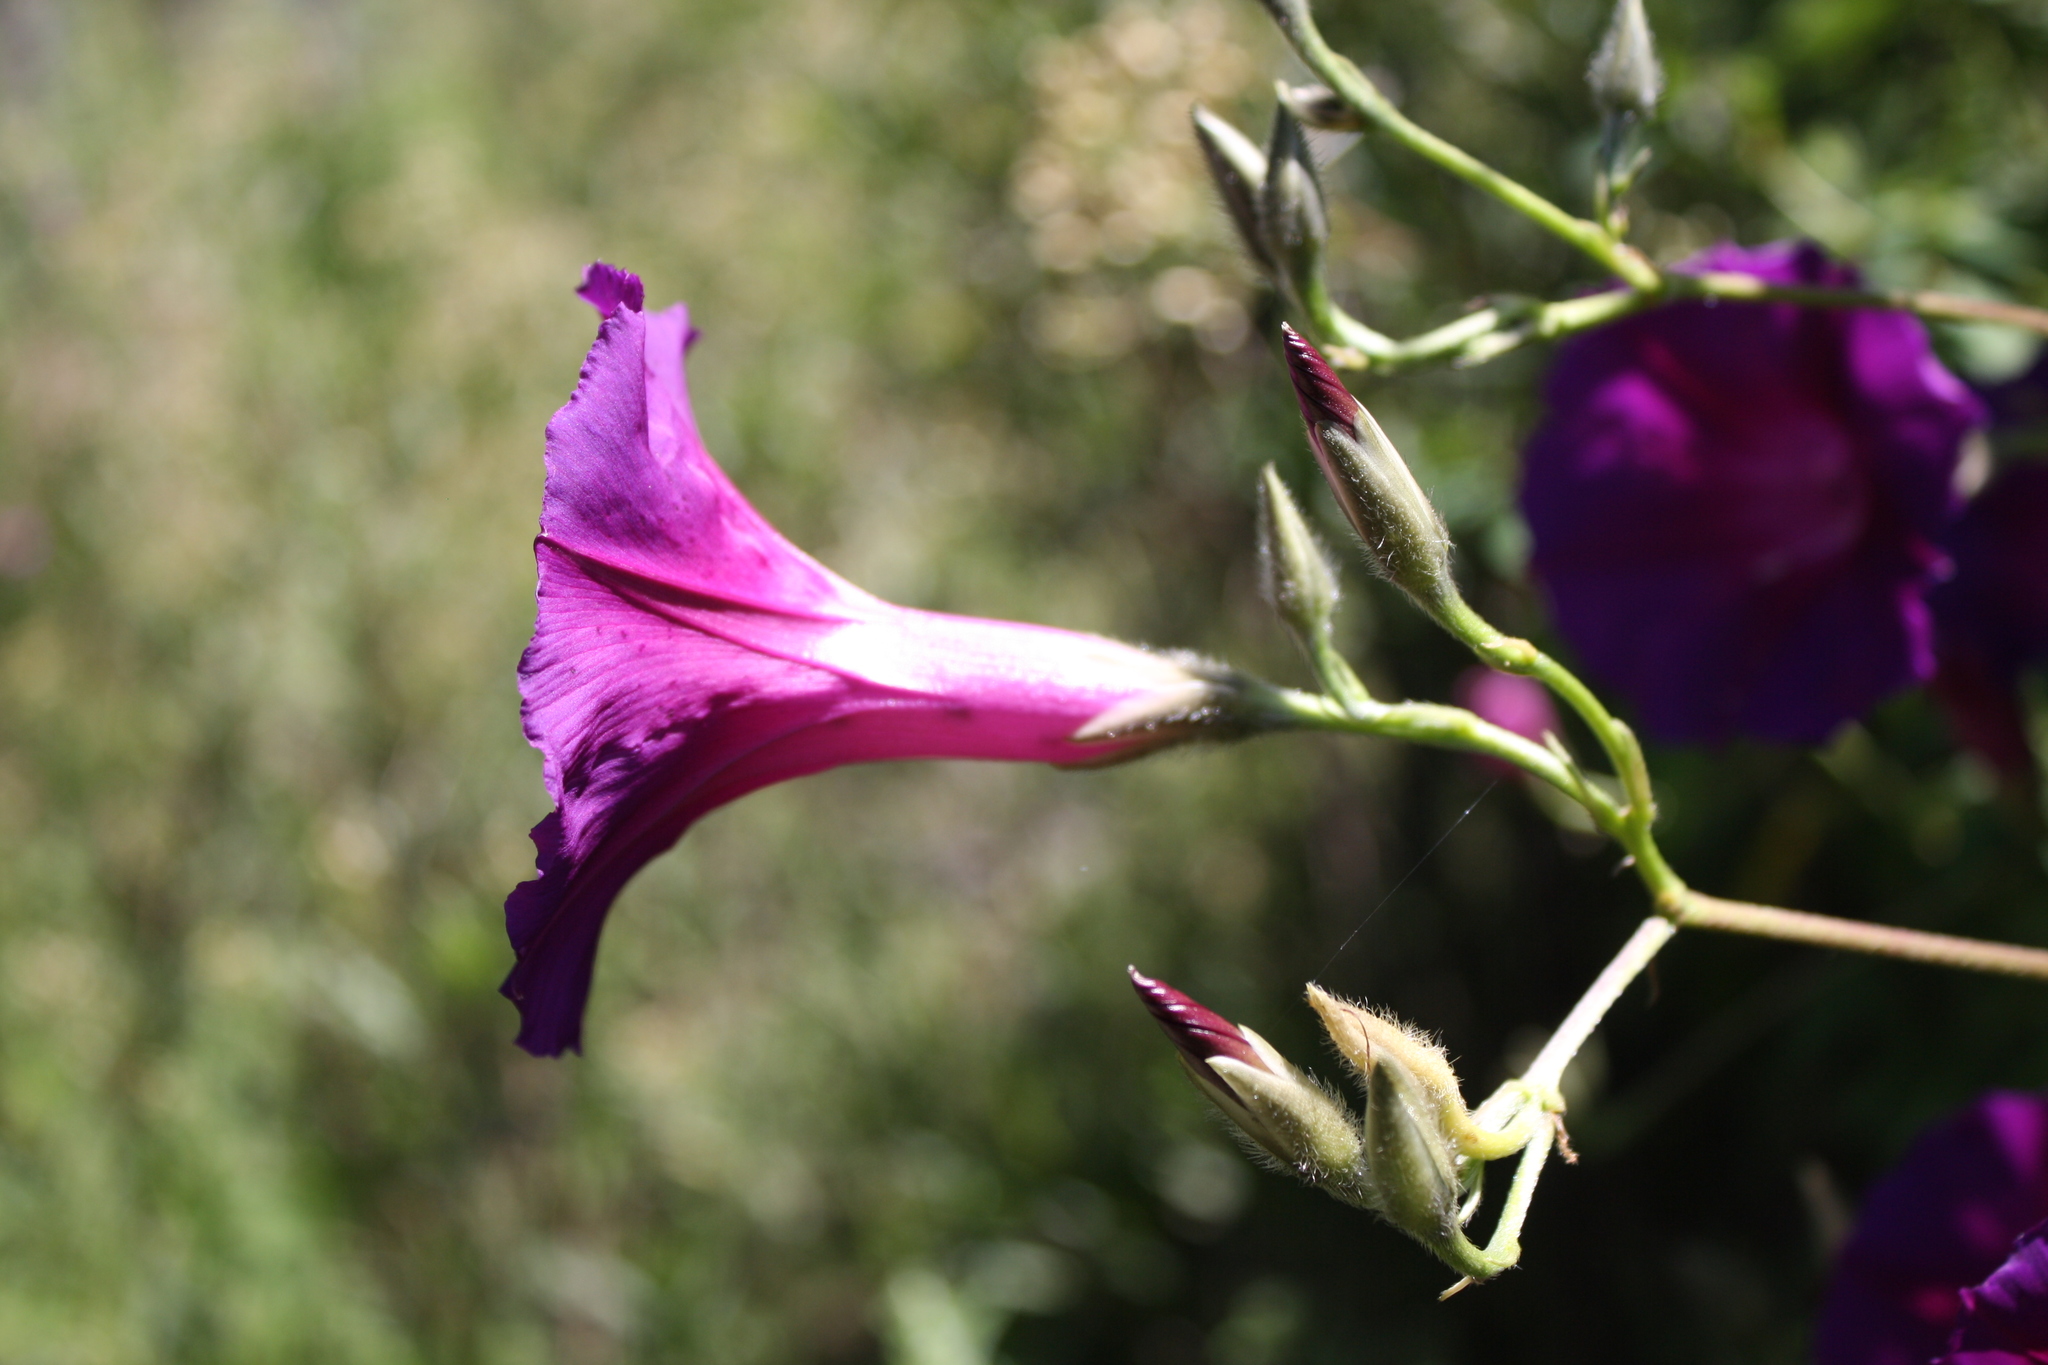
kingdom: Plantae
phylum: Tracheophyta
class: Magnoliopsida
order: Solanales
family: Convolvulaceae
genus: Ipomoea
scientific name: Ipomoea orizabensis
